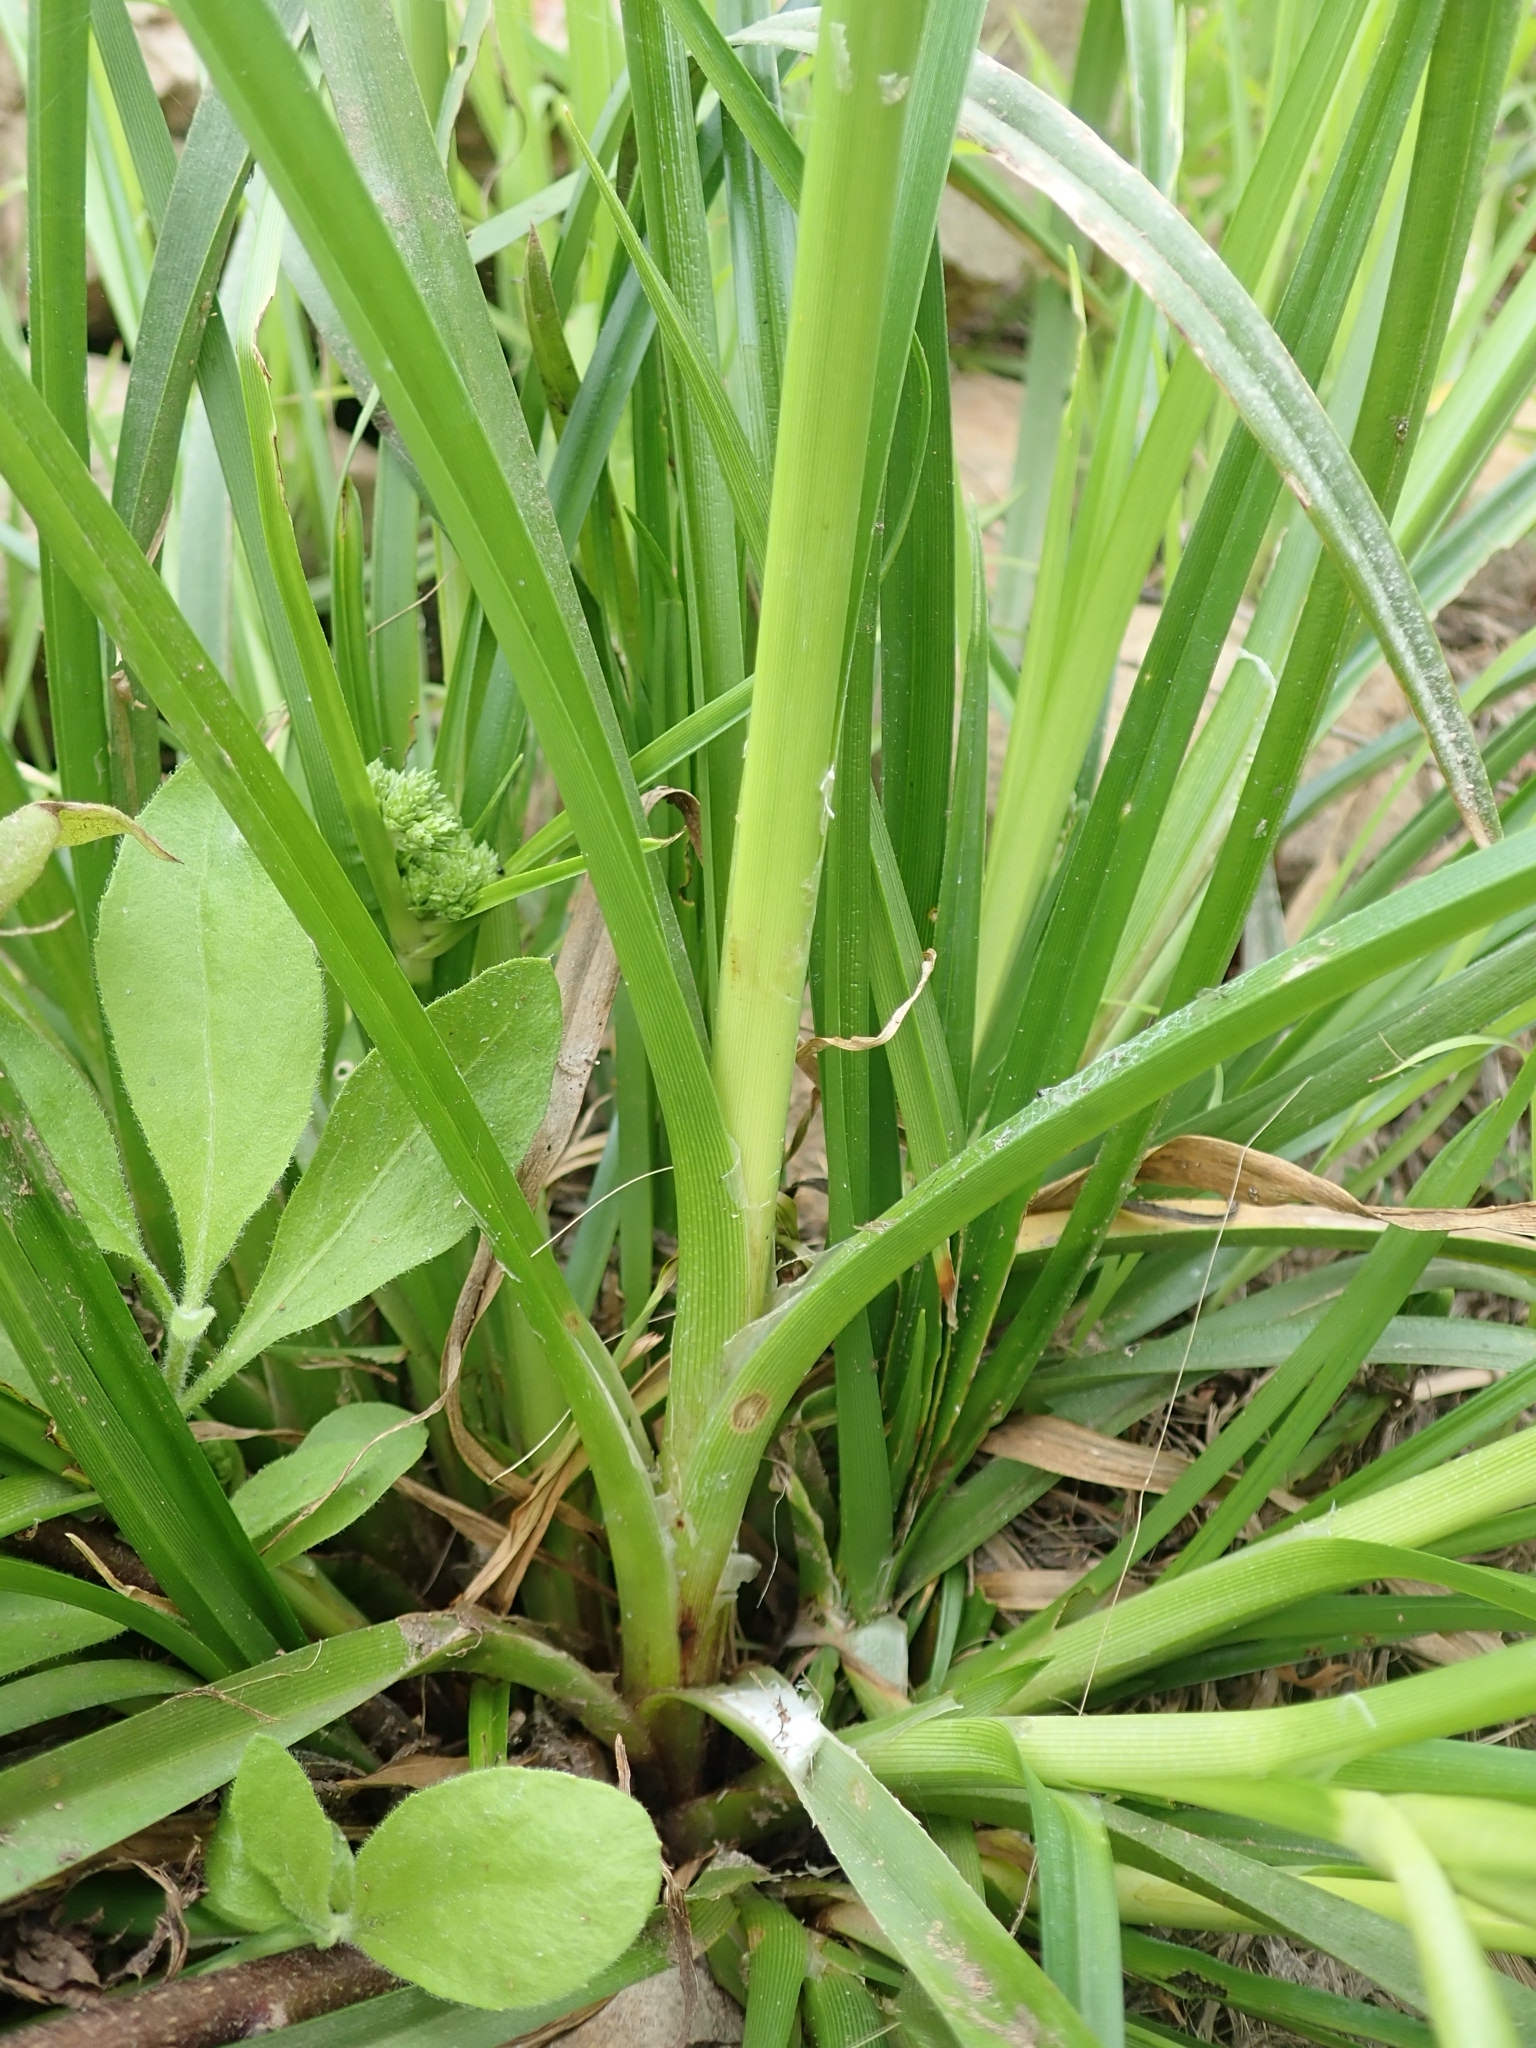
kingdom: Plantae
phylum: Tracheophyta
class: Liliopsida
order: Poales
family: Cyperaceae
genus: Cyperus
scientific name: Cyperus eragrostis
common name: Tall flatsedge
